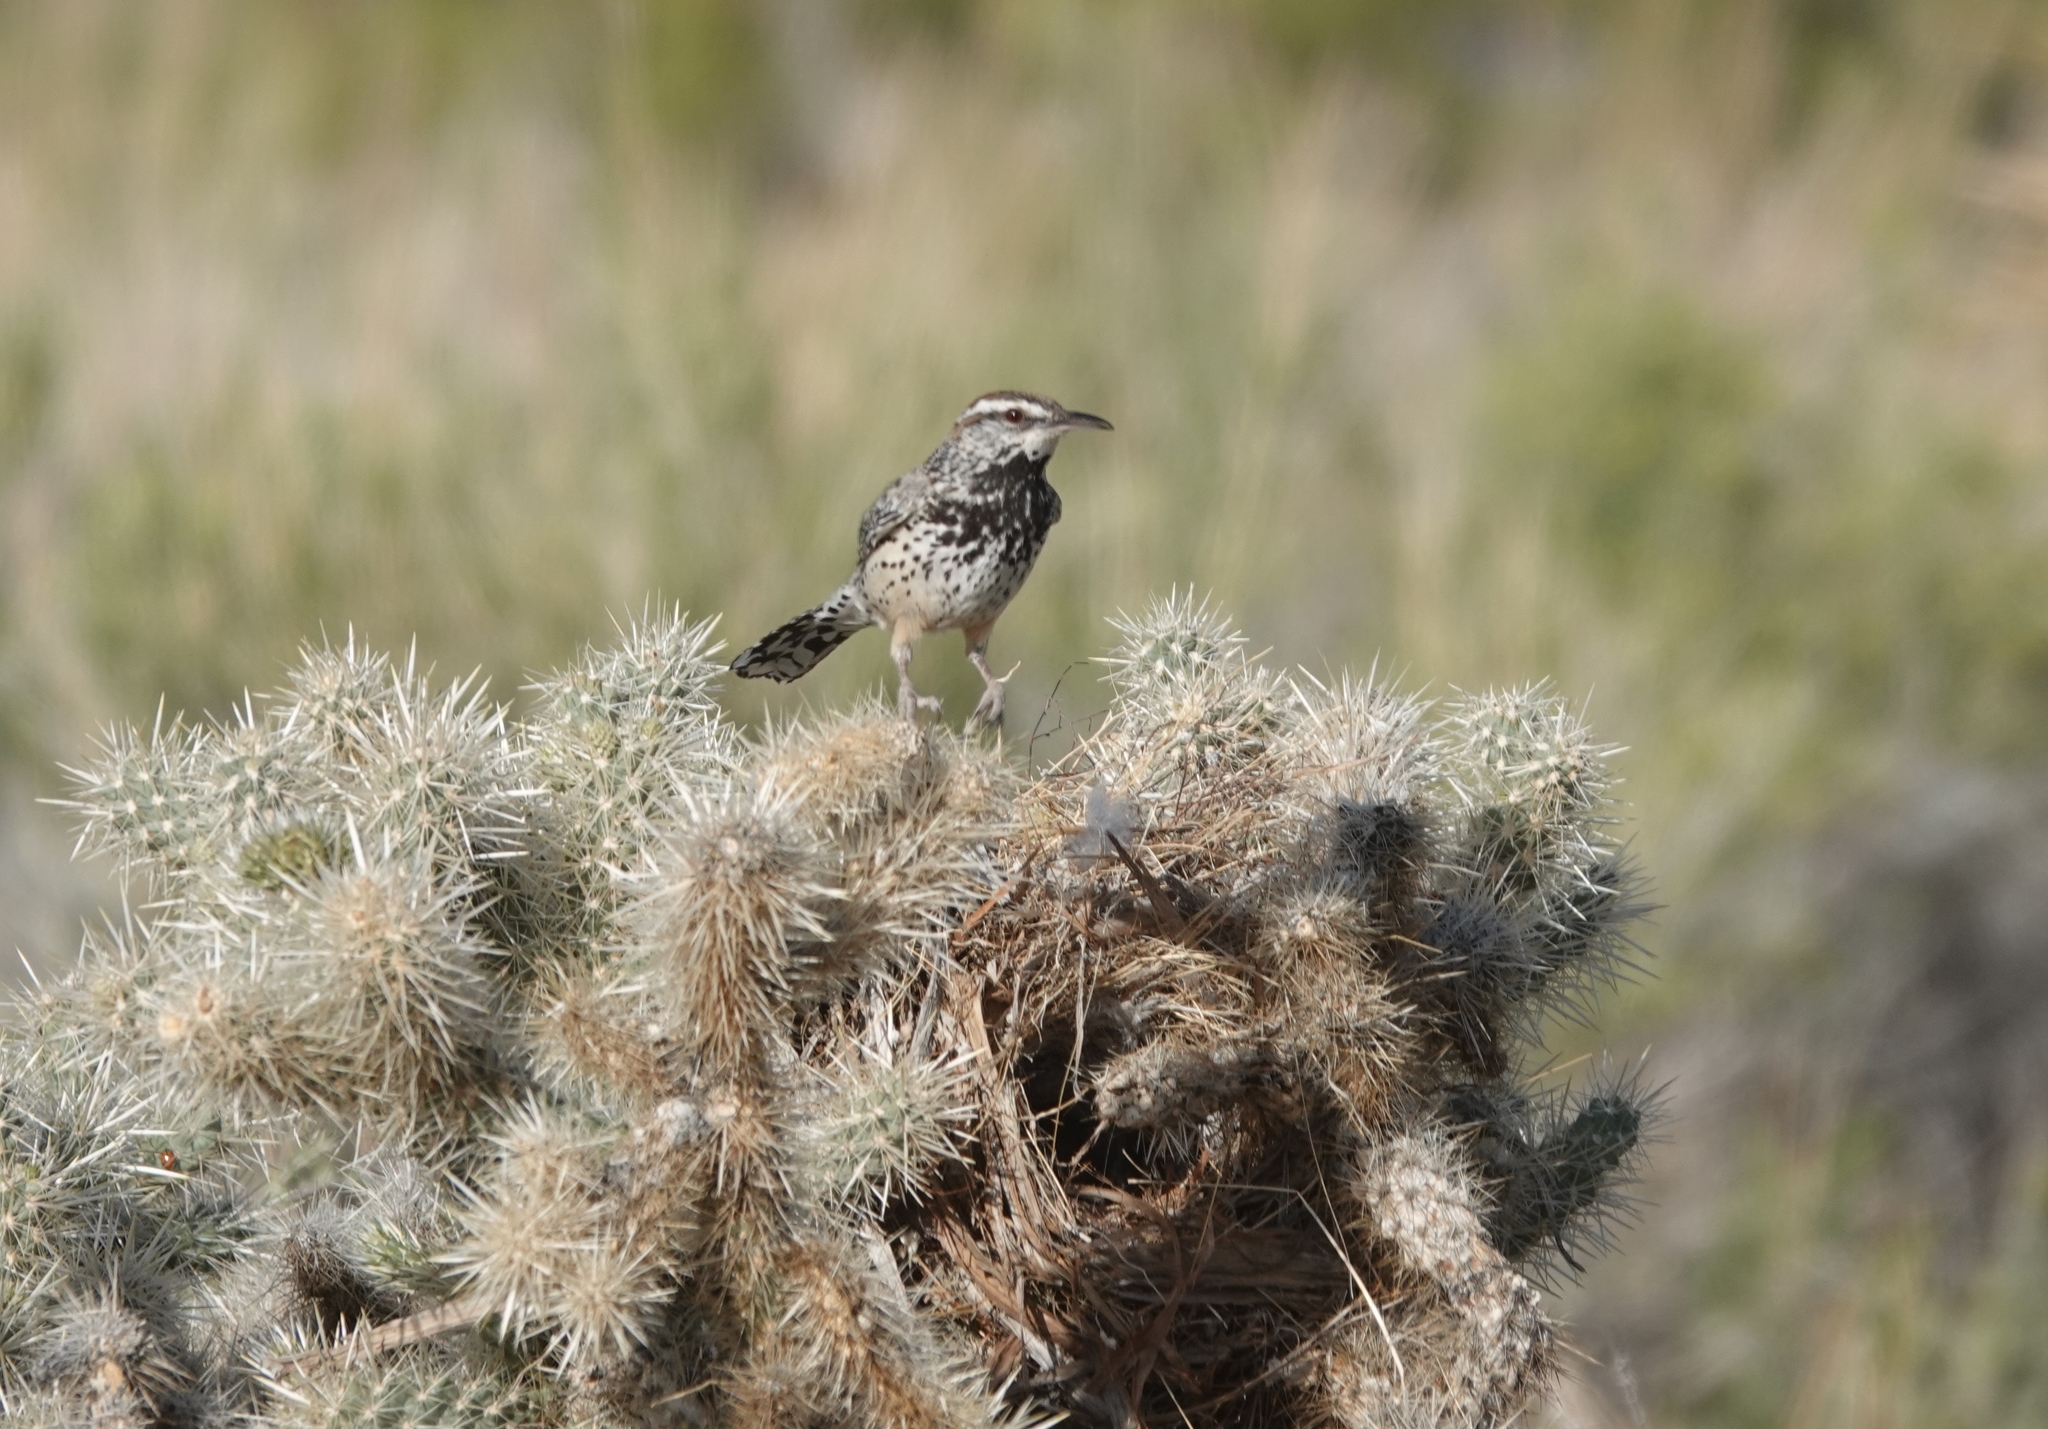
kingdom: Animalia
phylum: Chordata
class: Aves
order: Passeriformes
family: Troglodytidae
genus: Campylorhynchus
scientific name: Campylorhynchus brunneicapillus
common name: Cactus wren
